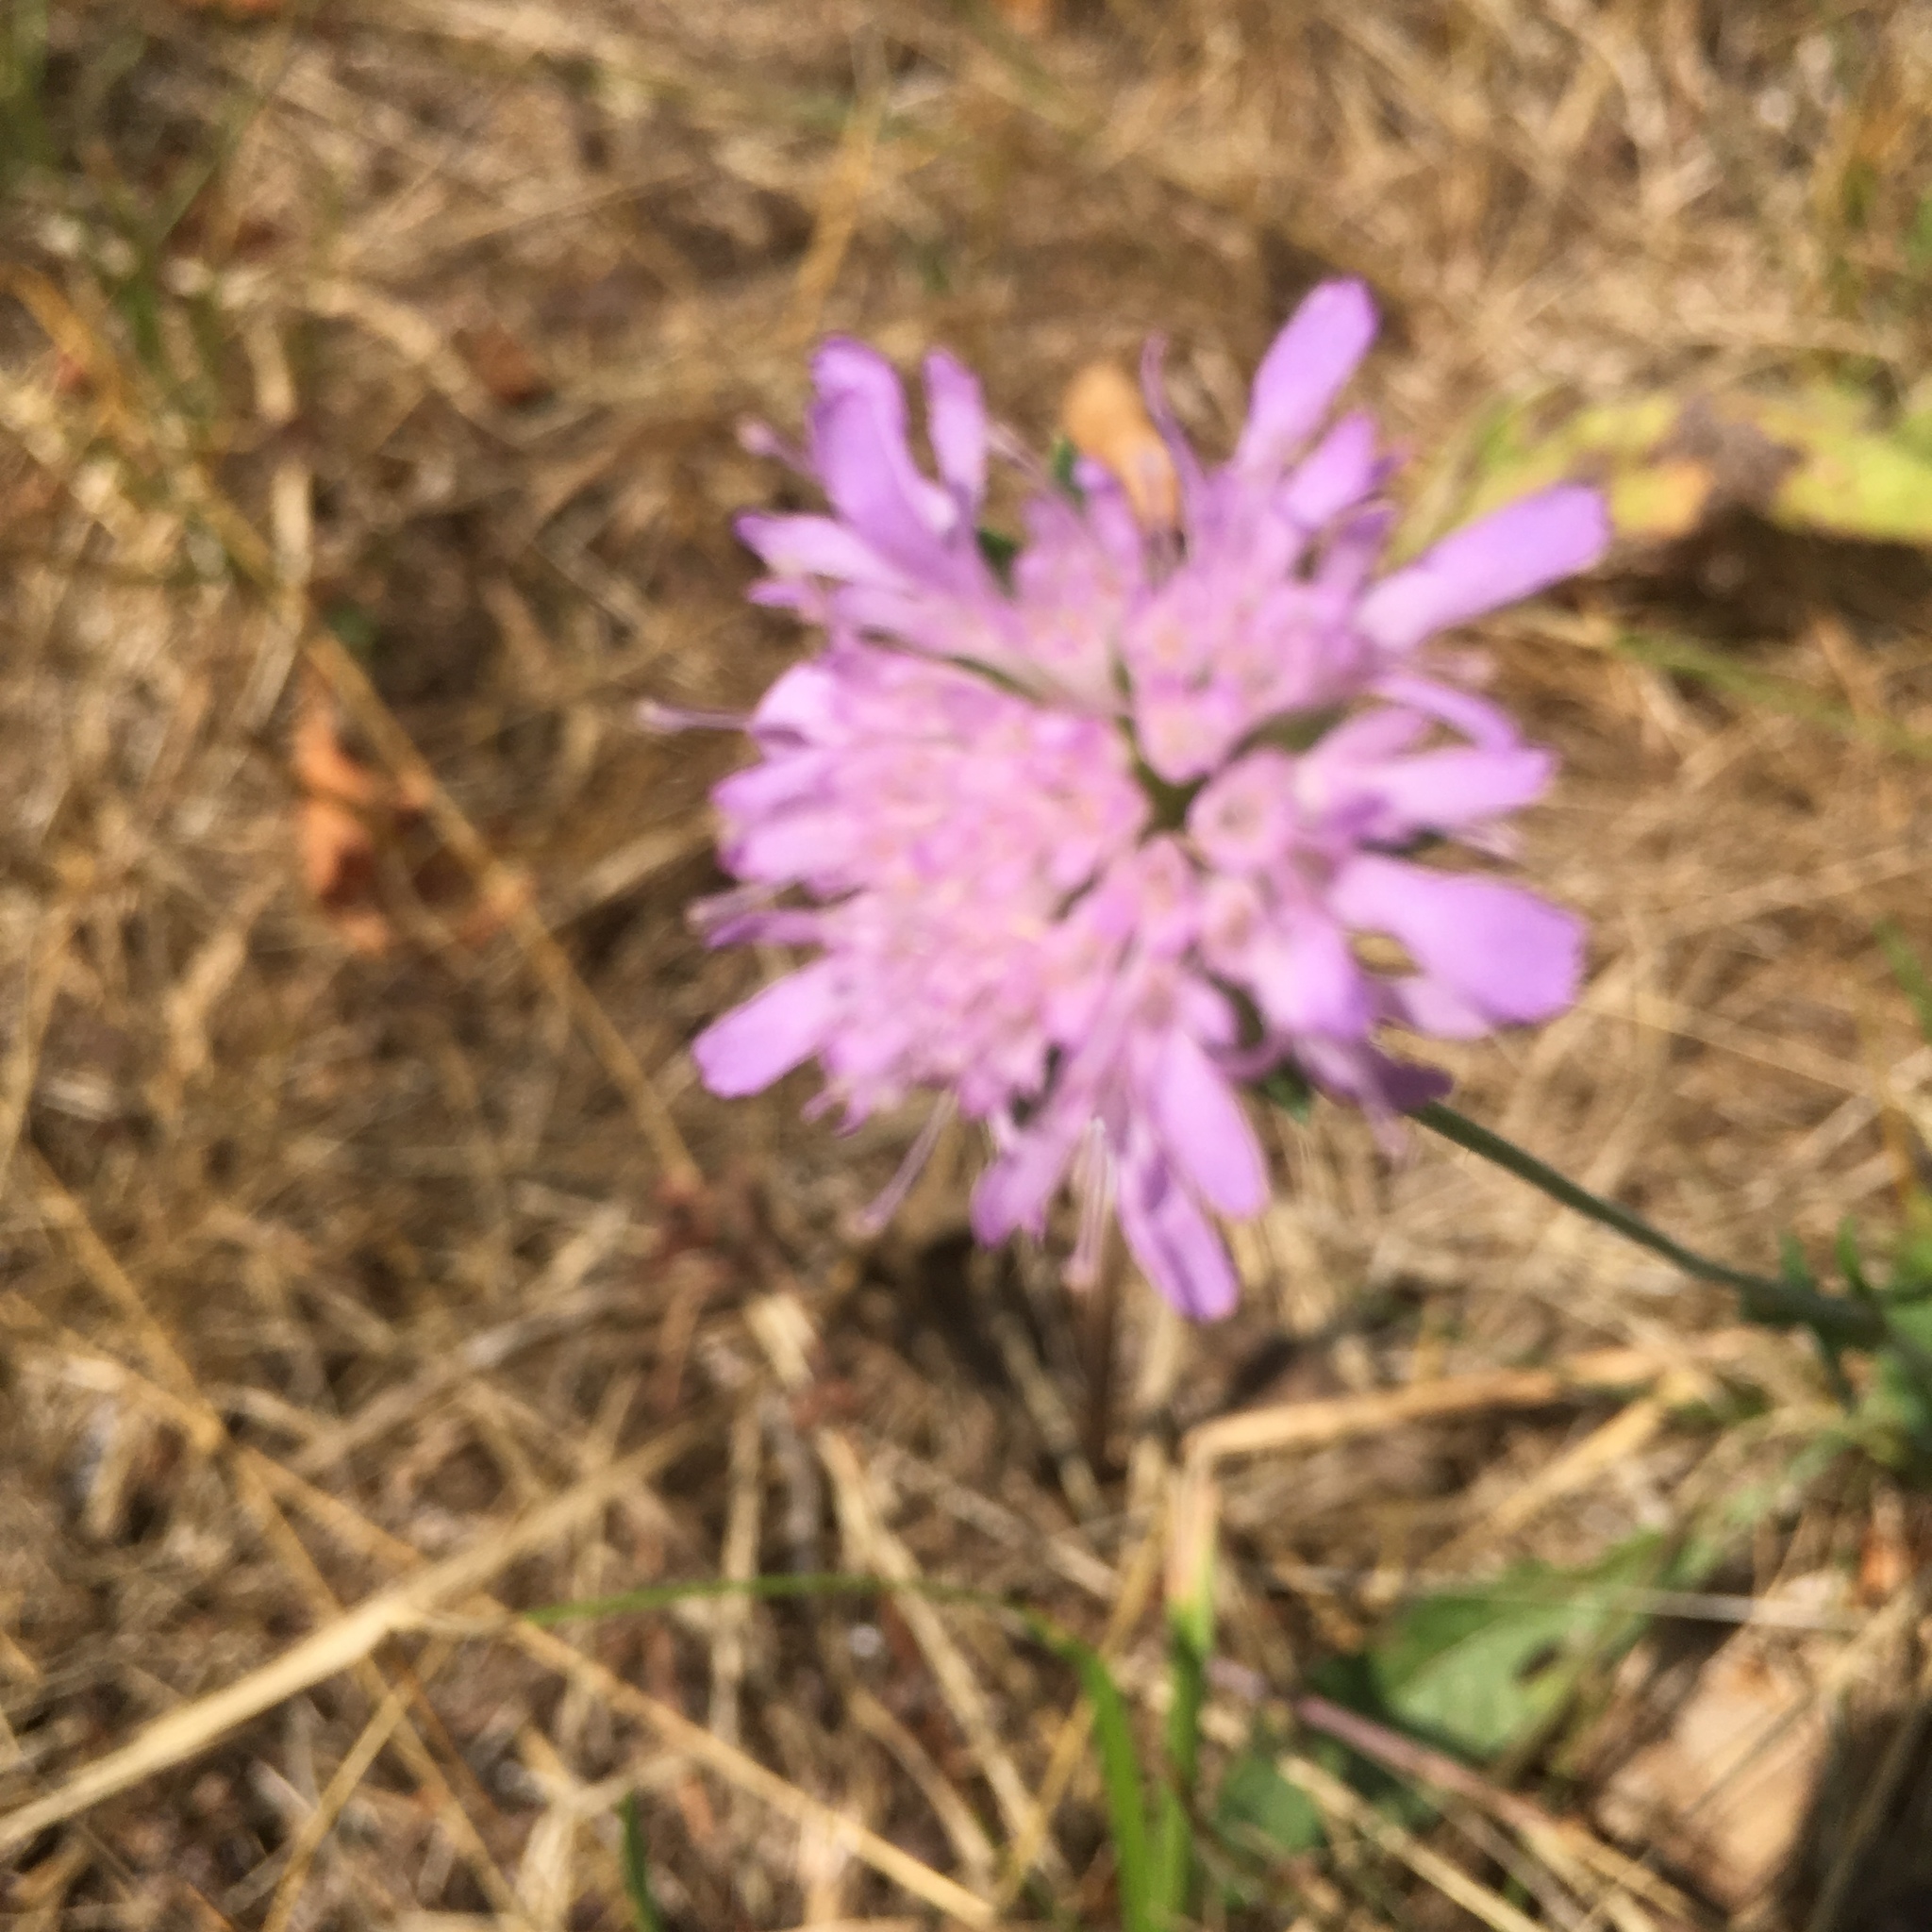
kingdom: Plantae
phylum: Tracheophyta
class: Magnoliopsida
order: Dipsacales
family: Caprifoliaceae
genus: Knautia
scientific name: Knautia arvensis
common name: Field scabiosa
